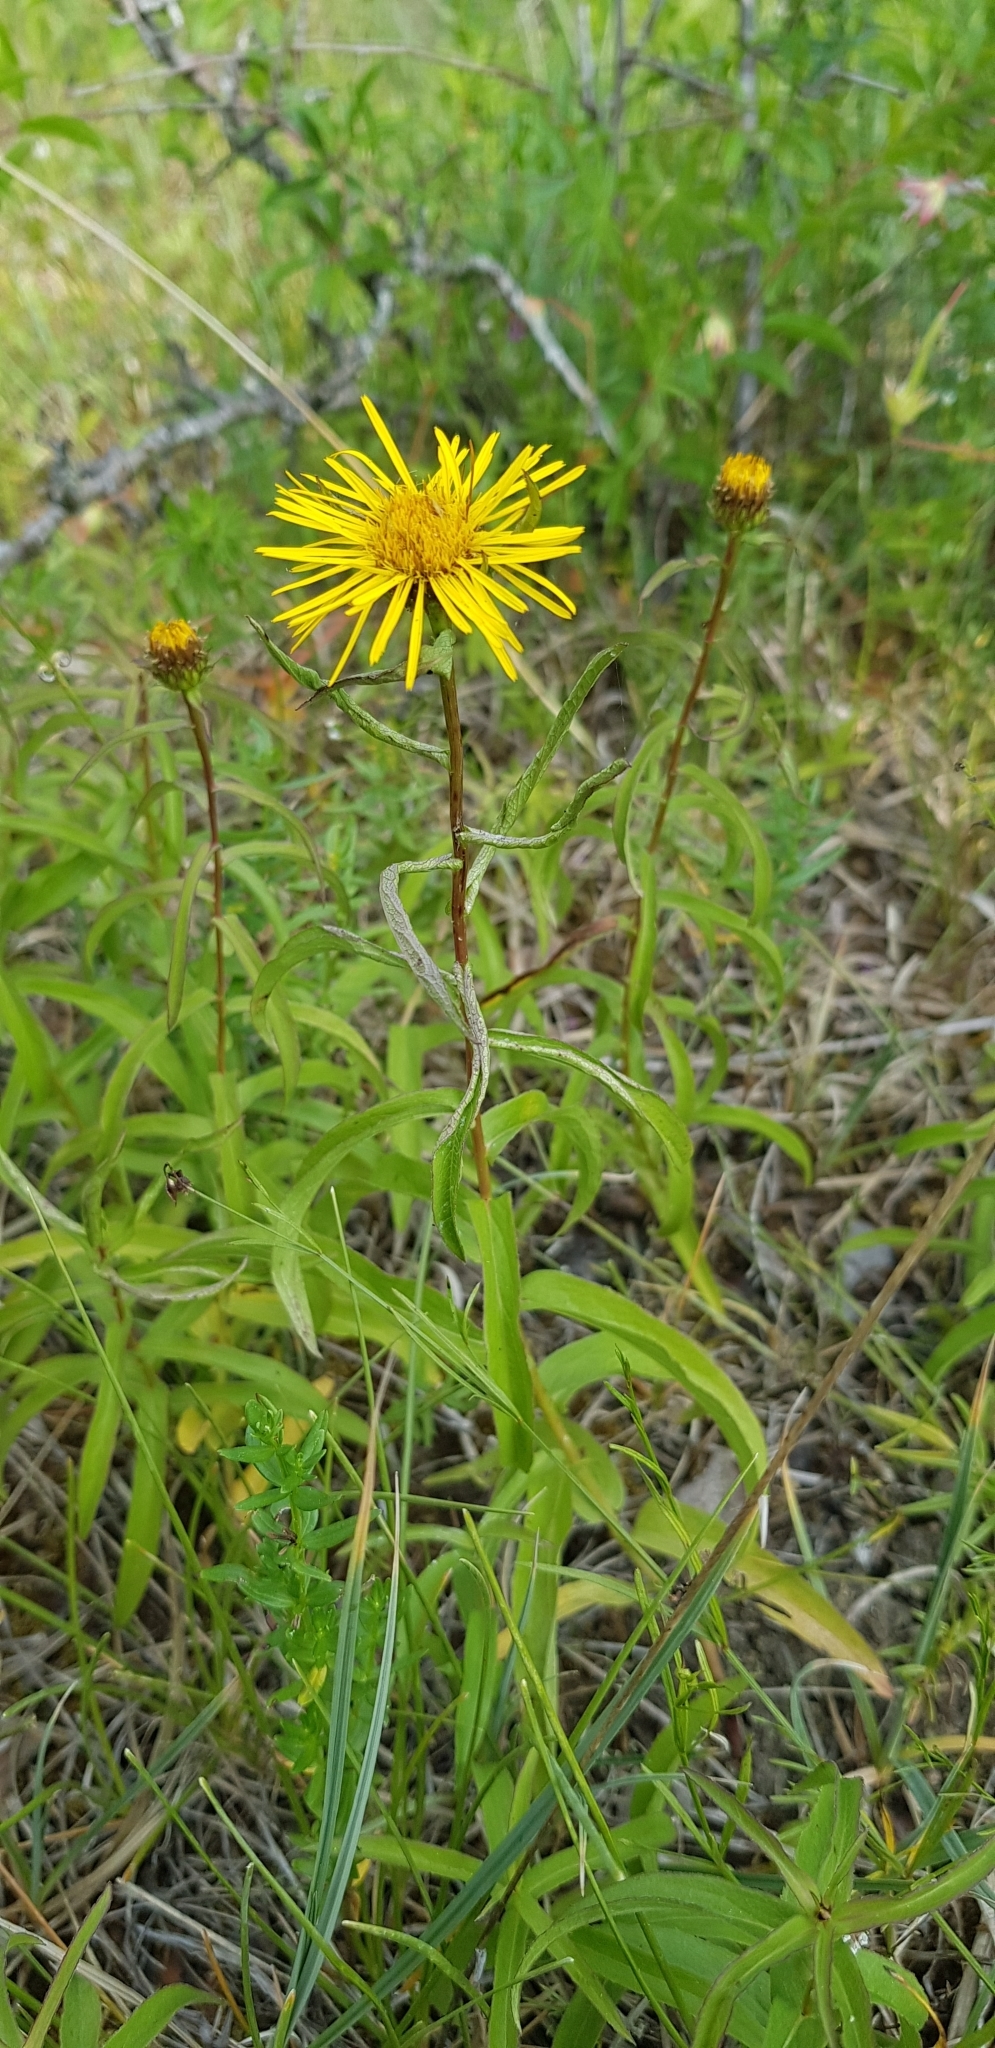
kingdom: Plantae
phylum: Tracheophyta
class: Magnoliopsida
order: Asterales
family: Asteraceae
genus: Pentanema
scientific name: Pentanema salicinum
